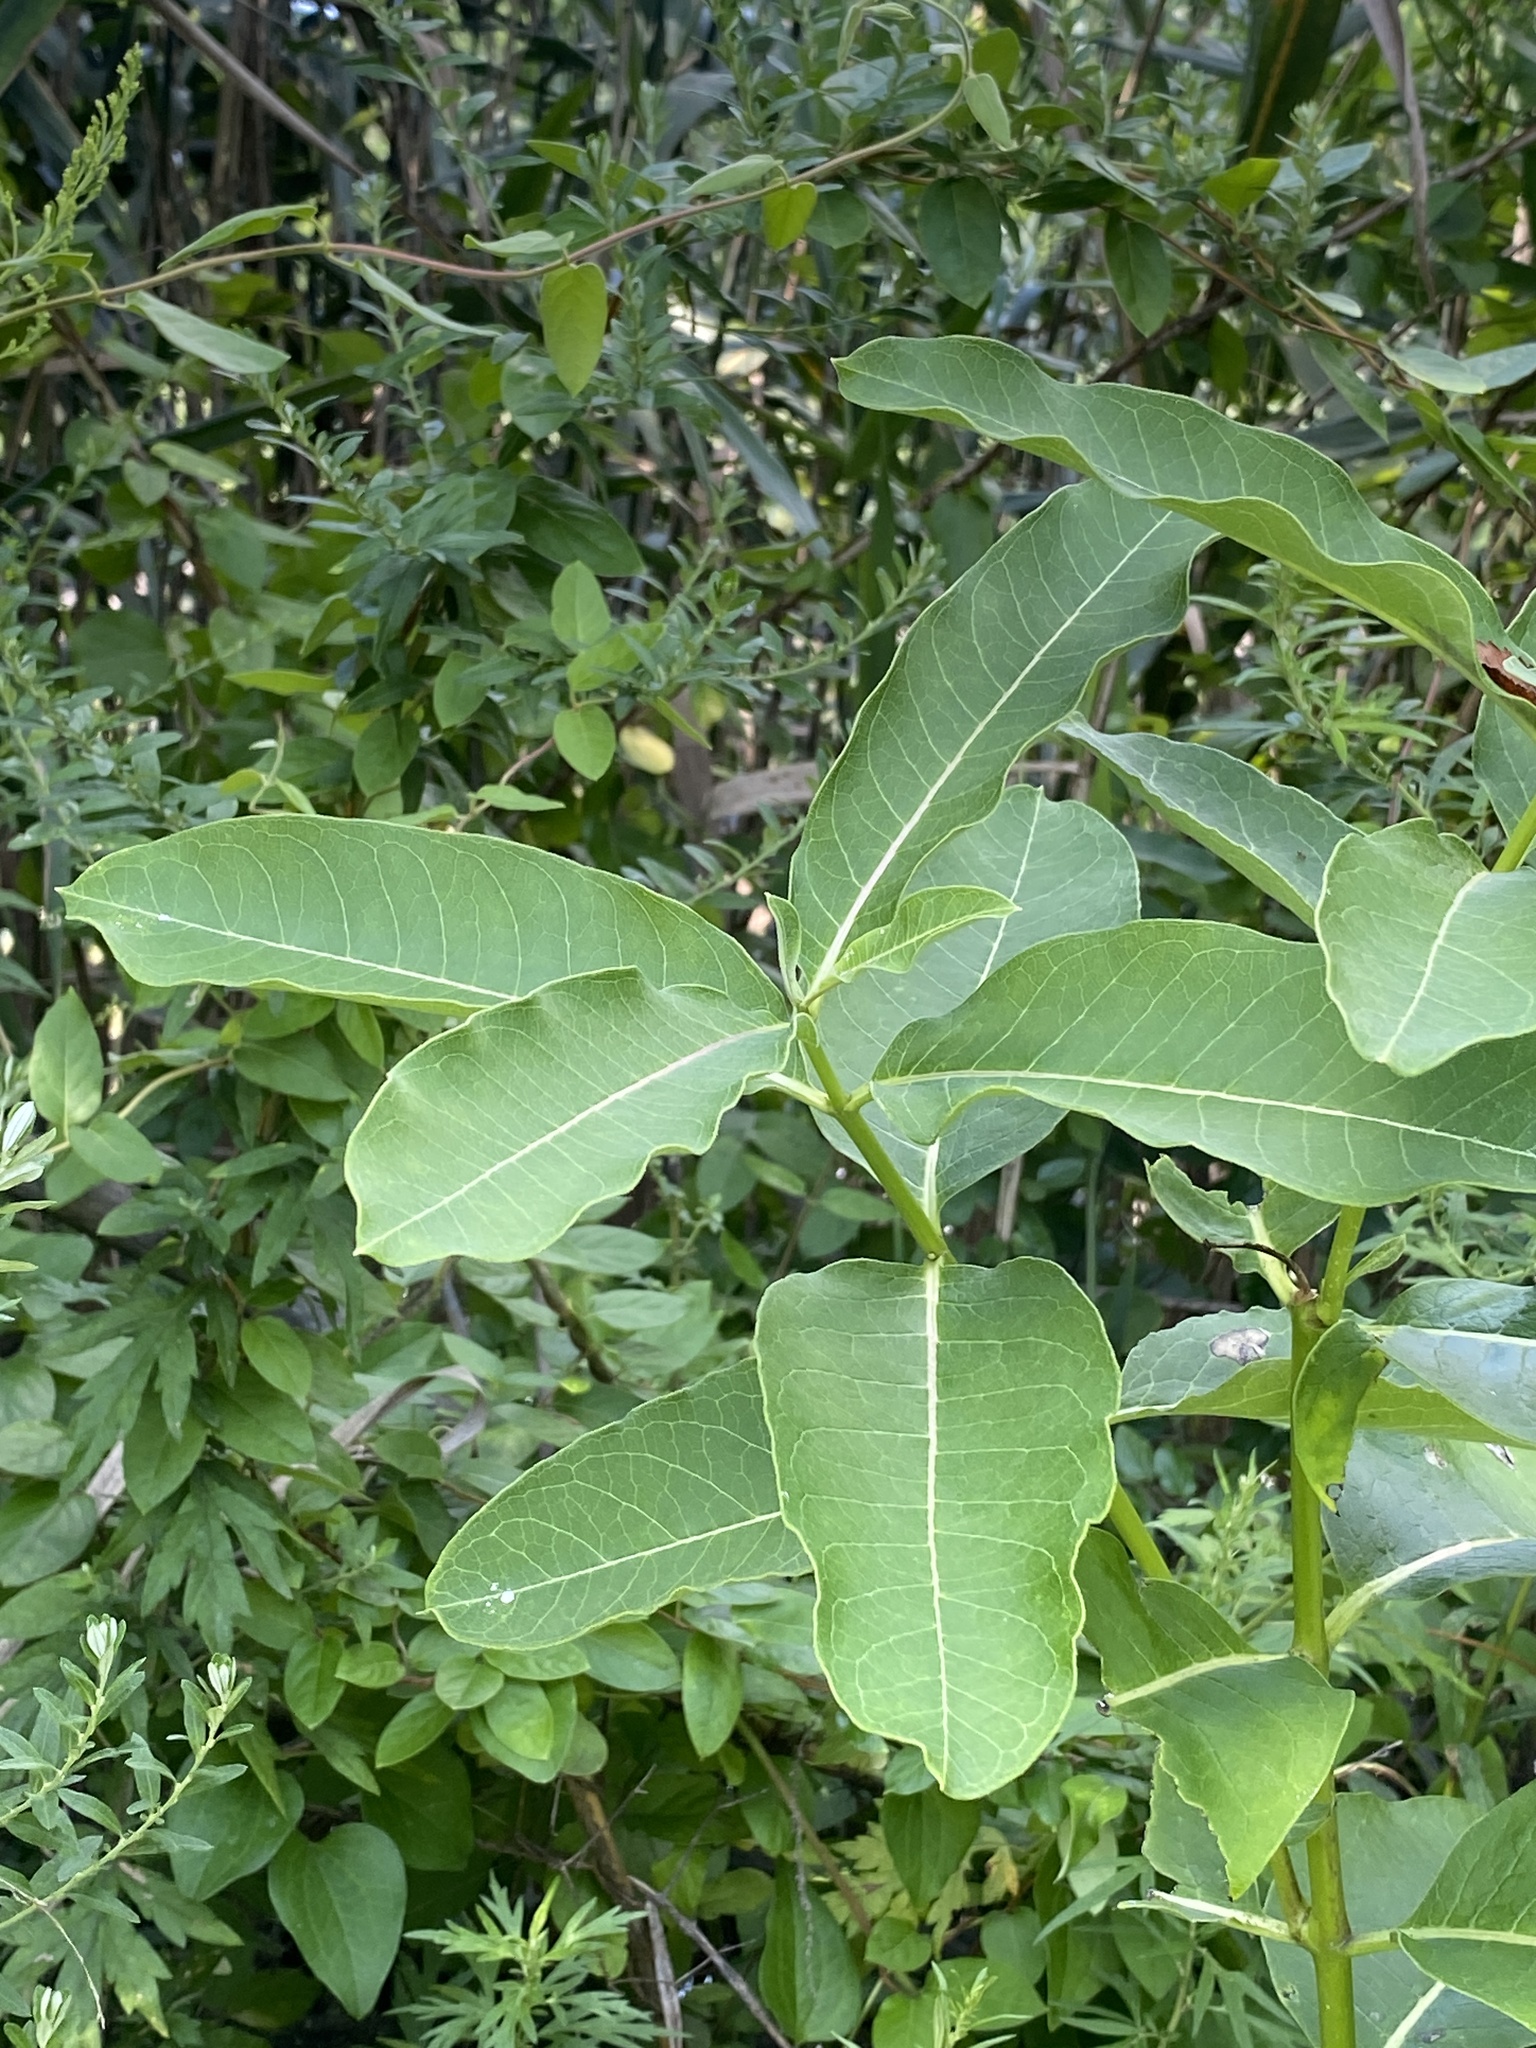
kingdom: Plantae
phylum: Tracheophyta
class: Magnoliopsida
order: Gentianales
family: Apocynaceae
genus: Asclepias
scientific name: Asclepias syriaca
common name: Common milkweed
